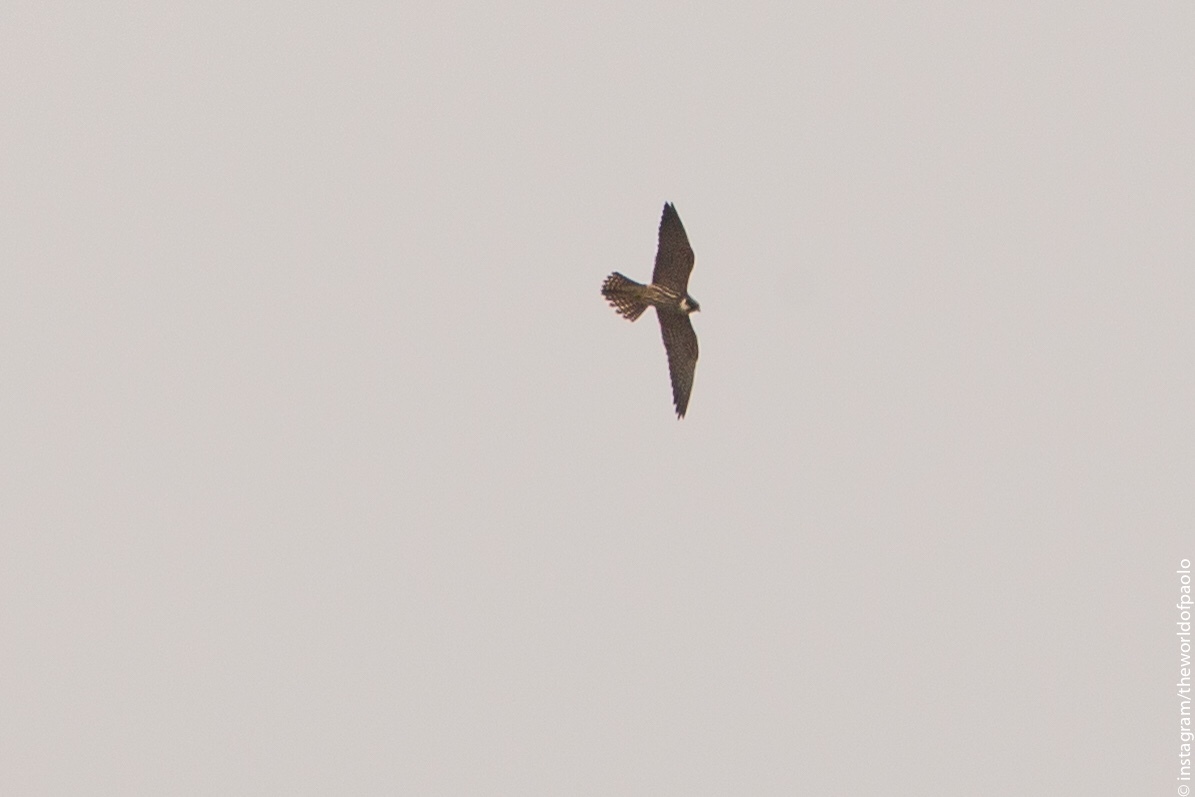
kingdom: Animalia
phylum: Chordata
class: Aves
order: Falconiformes
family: Falconidae
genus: Falco
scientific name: Falco subbuteo
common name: Eurasian hobby
